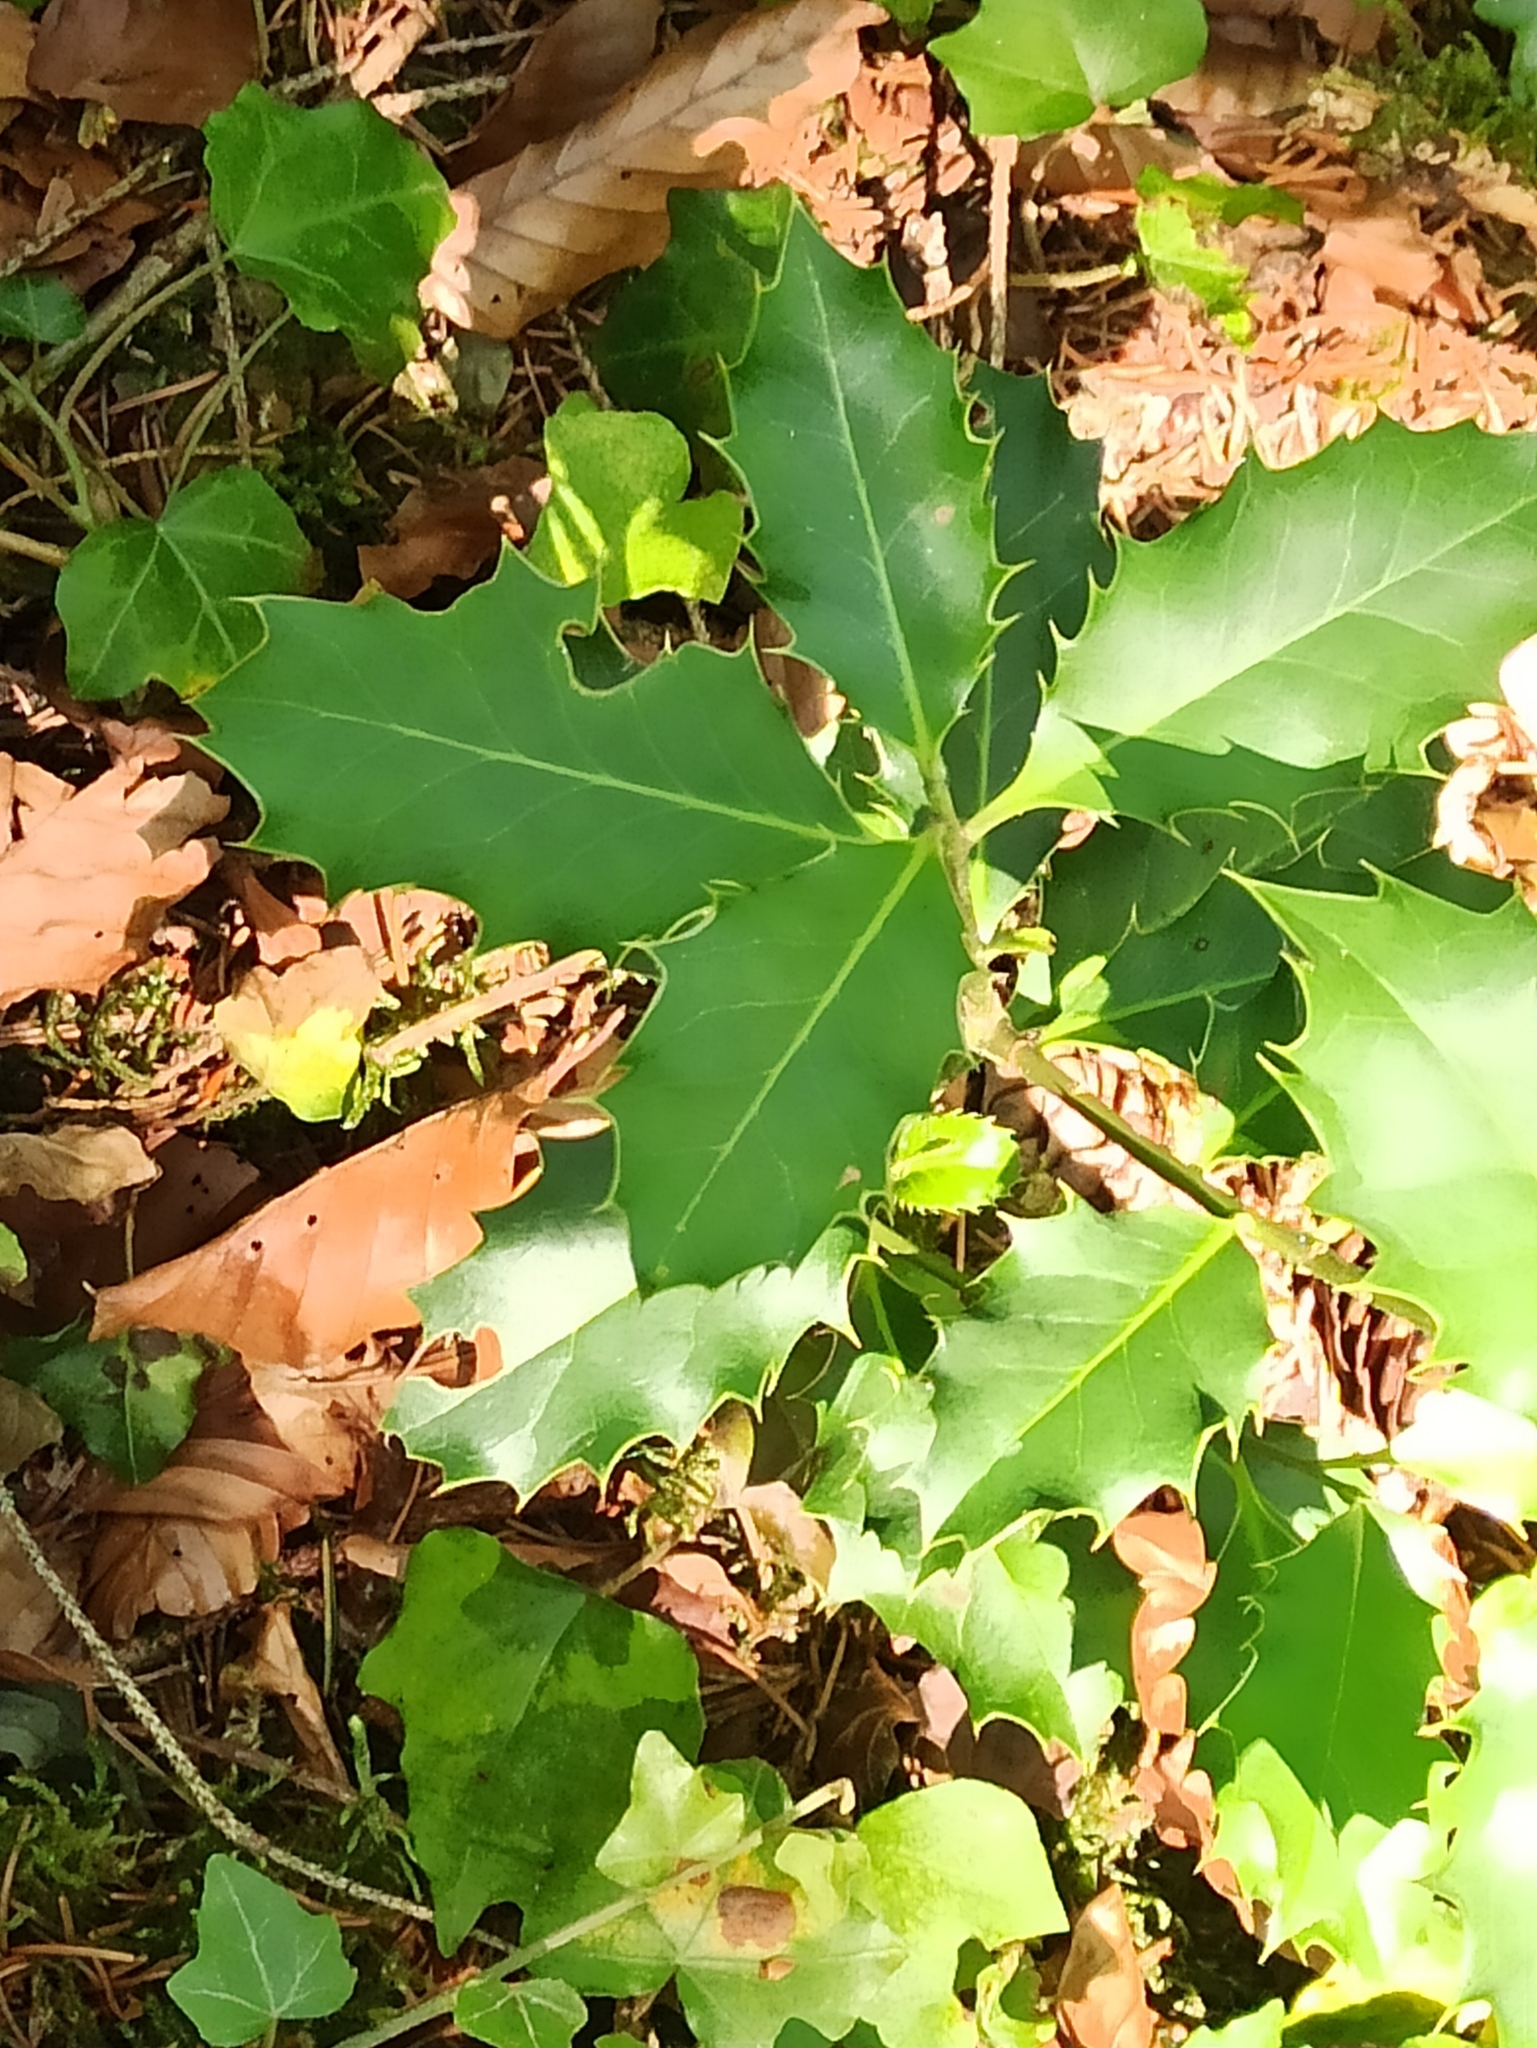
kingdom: Plantae
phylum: Tracheophyta
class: Magnoliopsida
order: Aquifoliales
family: Aquifoliaceae
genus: Ilex
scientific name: Ilex aquifolium
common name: English holly
